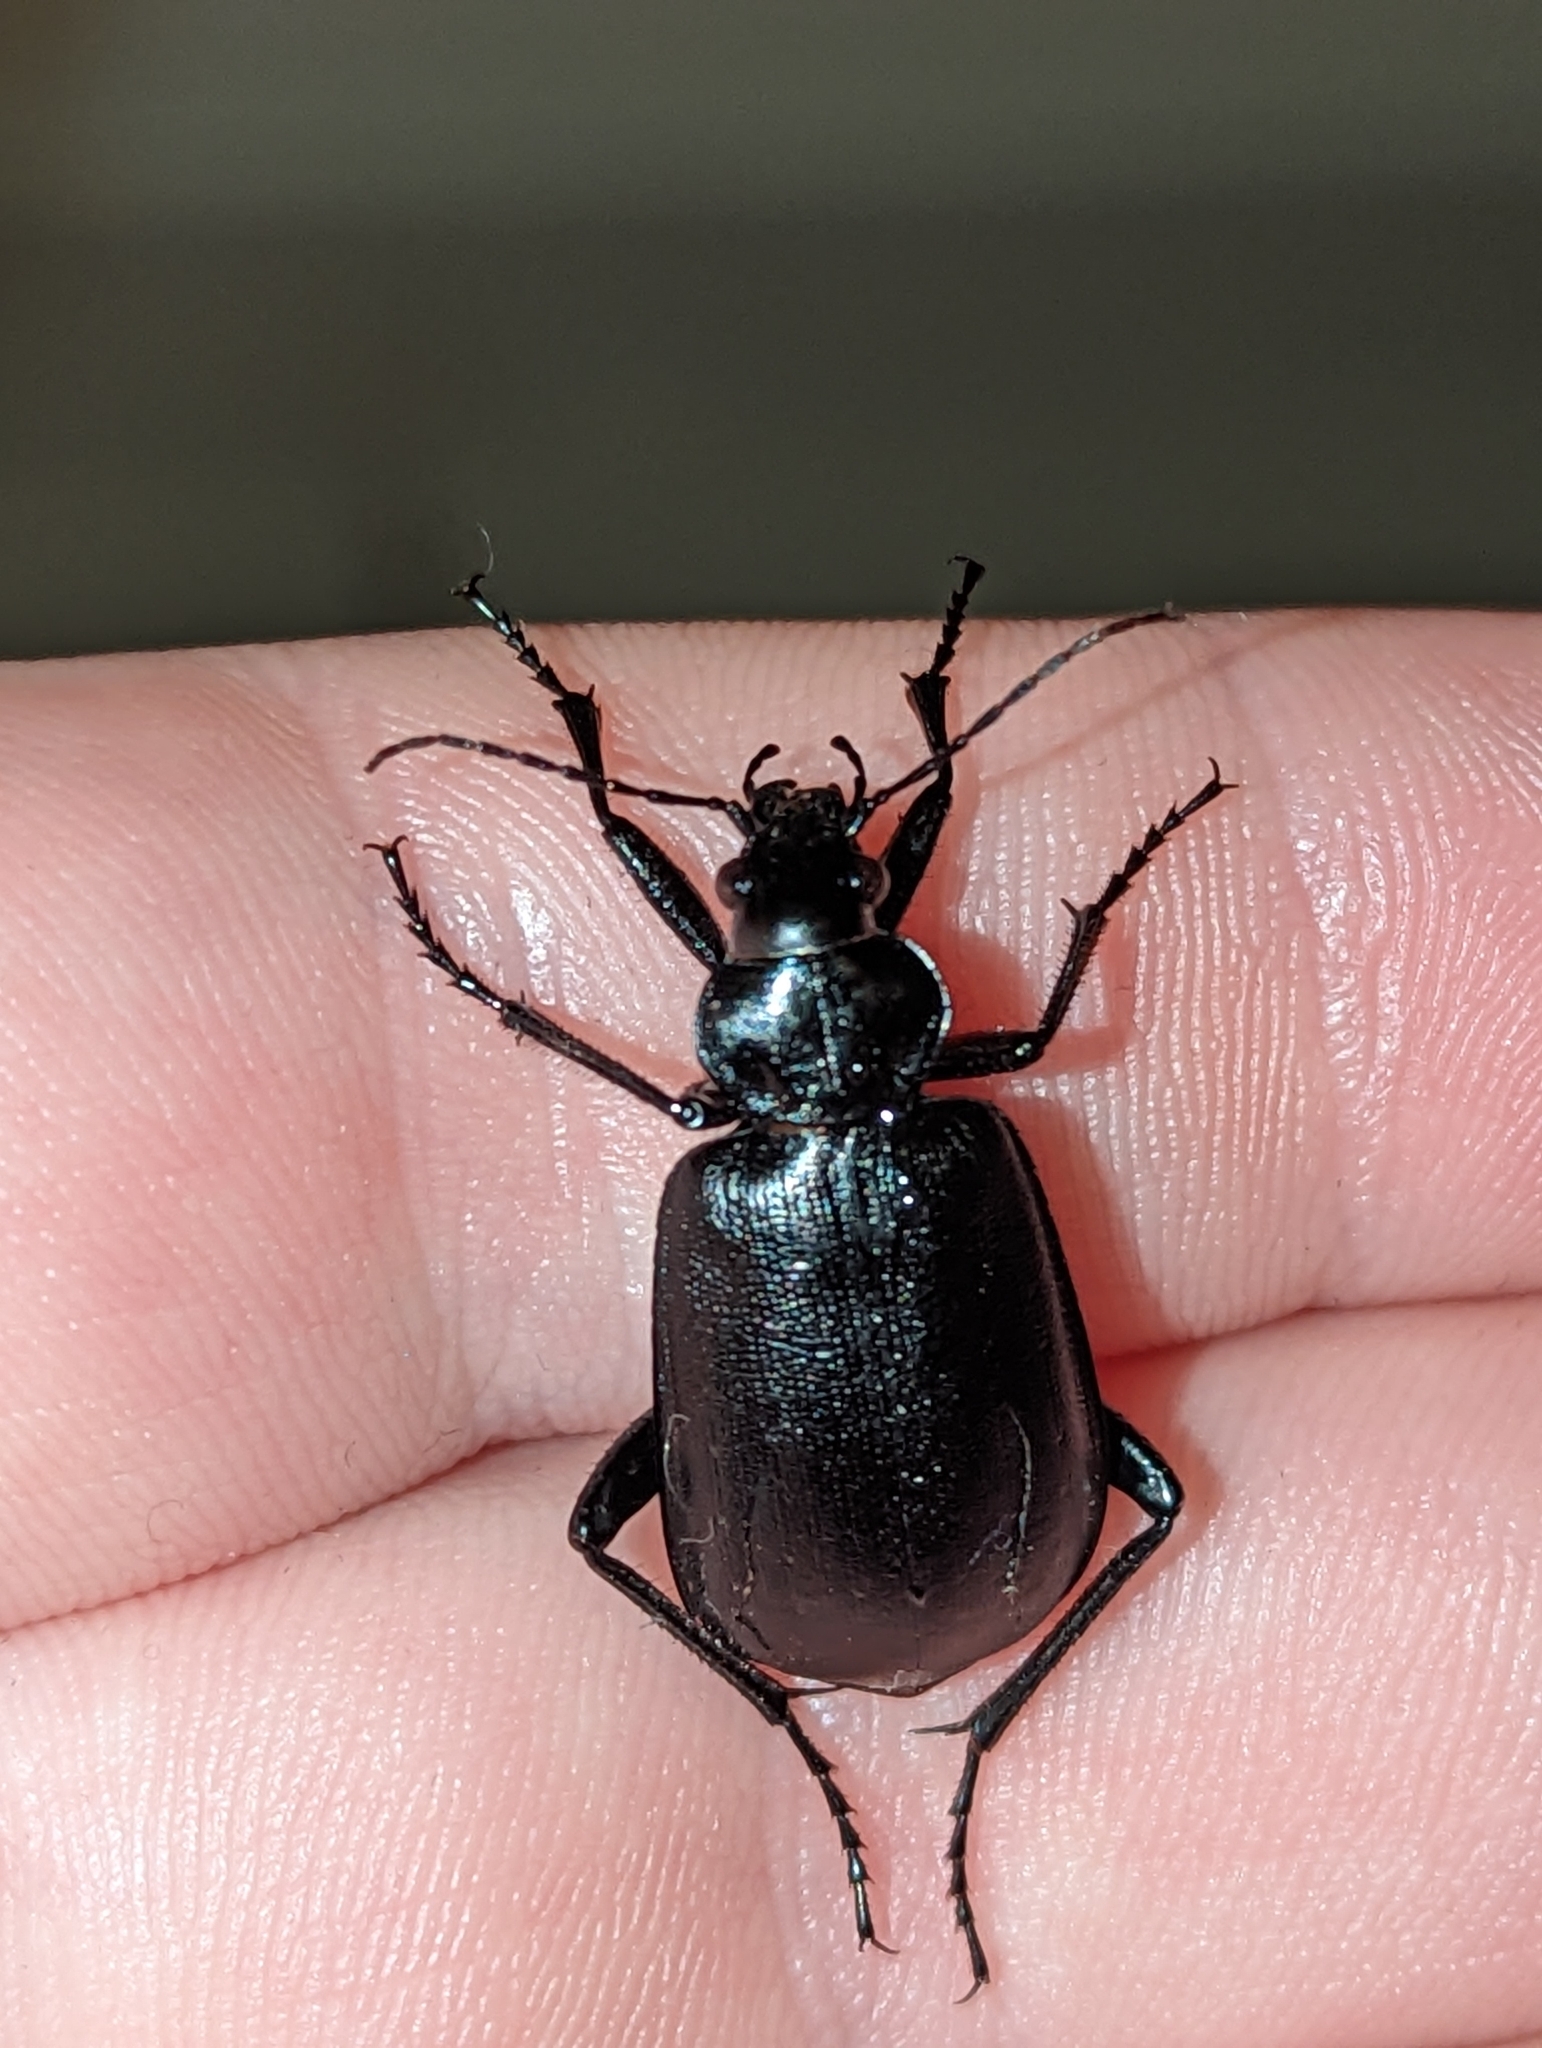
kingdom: Animalia
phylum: Arthropoda
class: Insecta
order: Coleoptera
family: Carabidae
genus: Calosoma
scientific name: Calosoma olivieri
